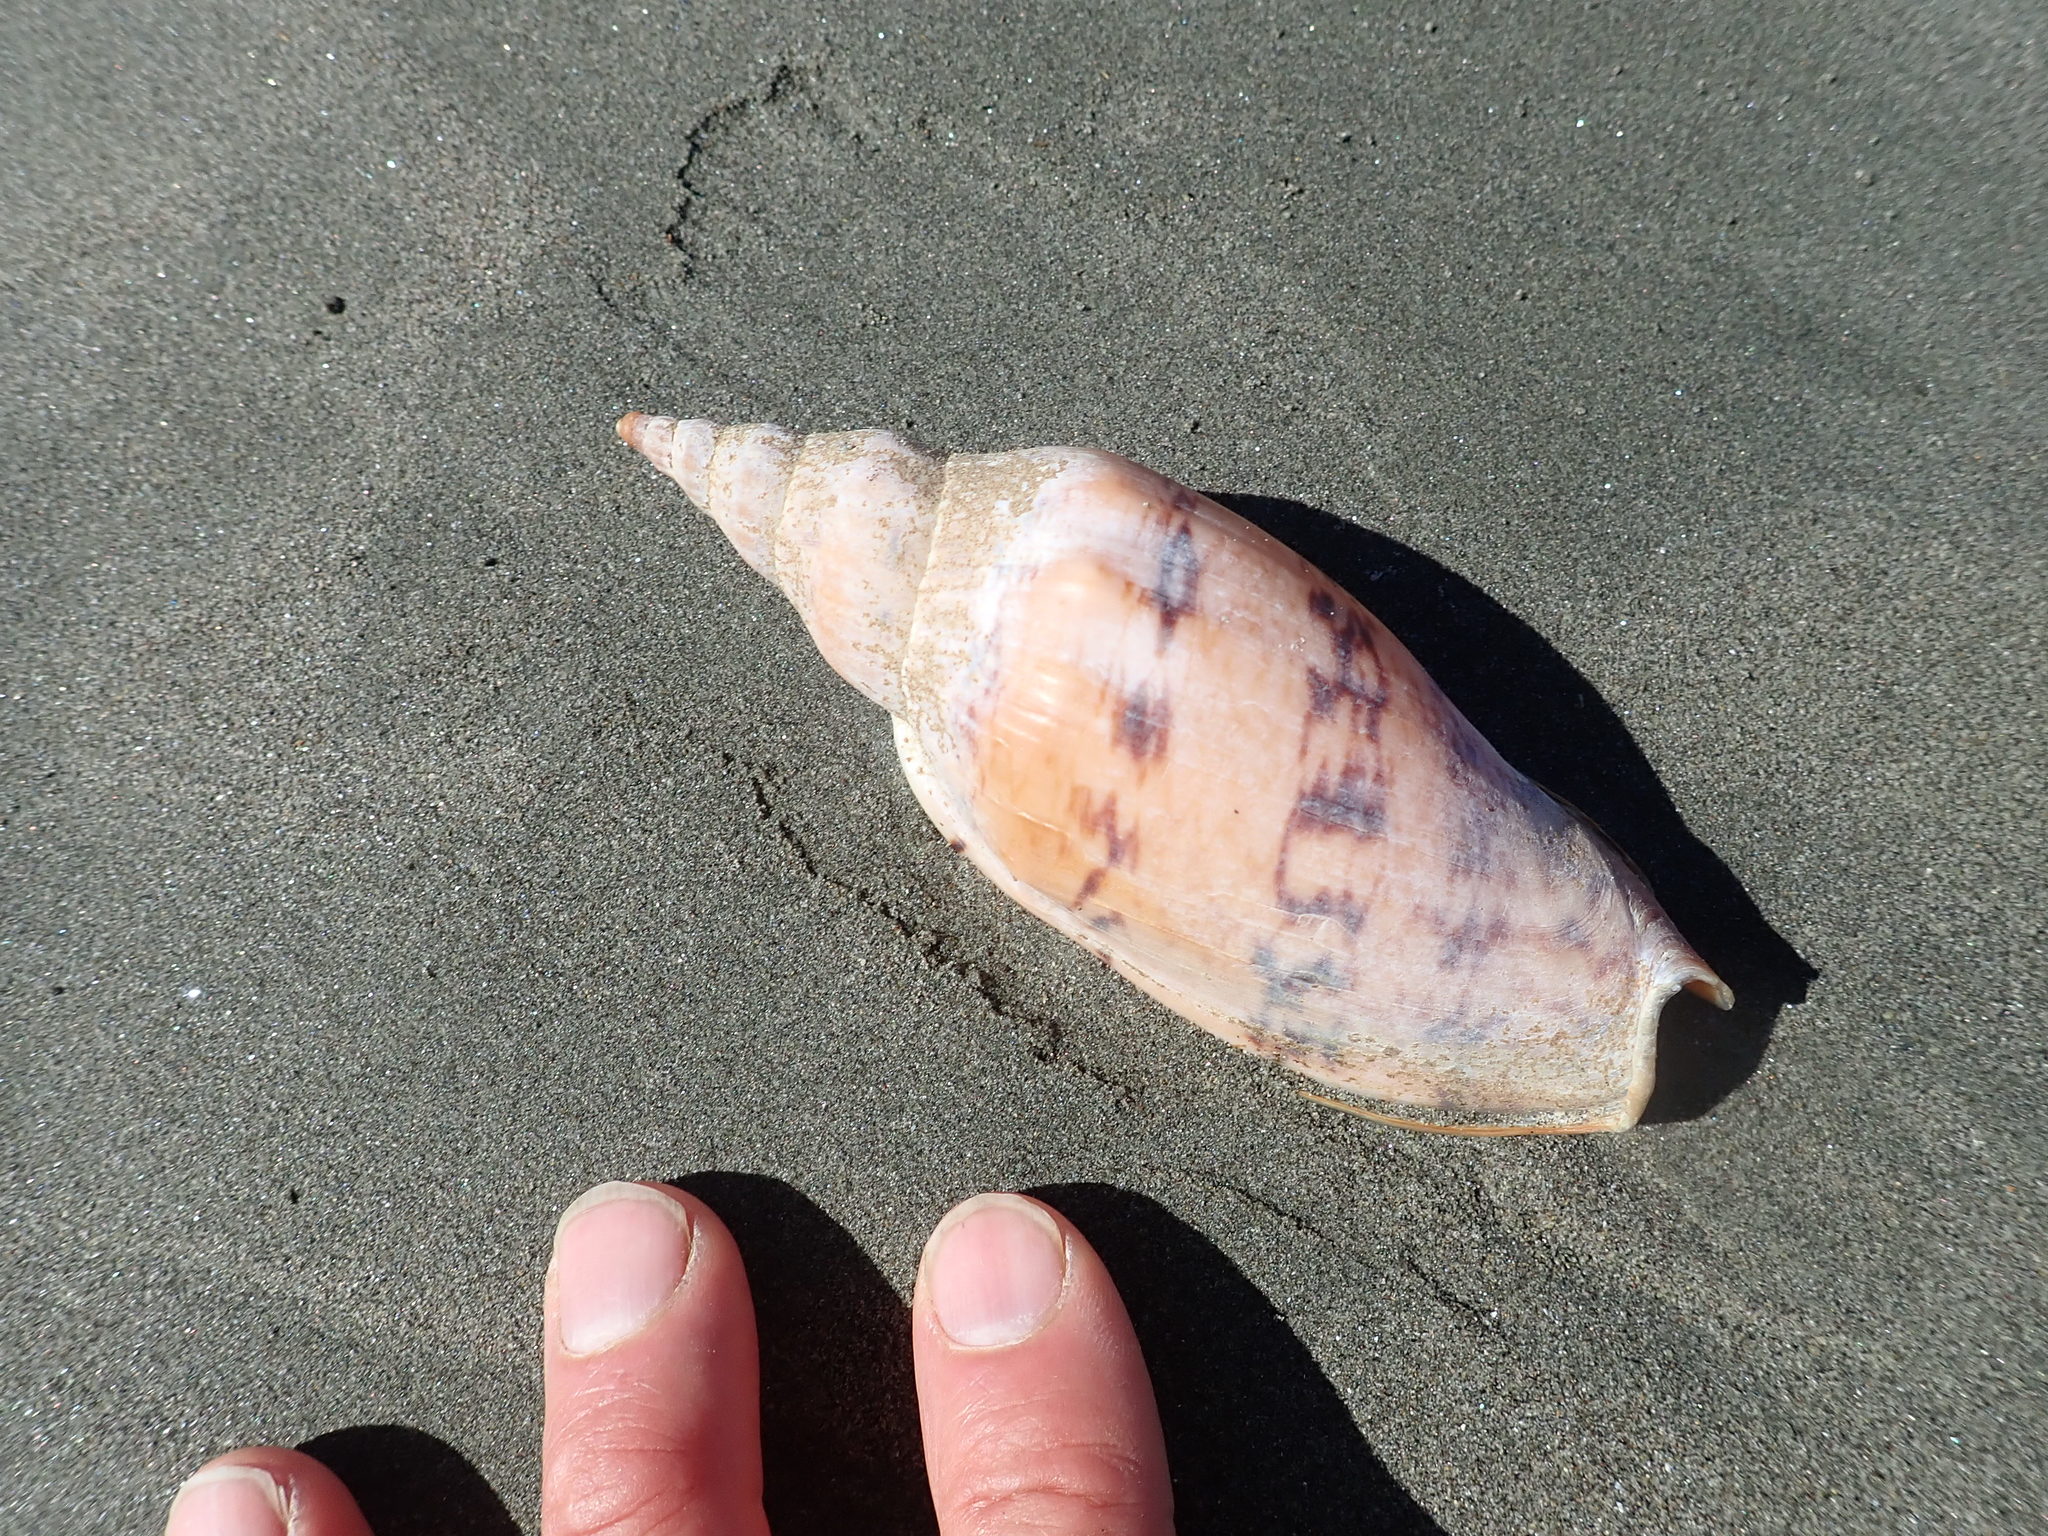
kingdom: Animalia
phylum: Mollusca
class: Gastropoda
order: Neogastropoda
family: Volutidae
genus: Alcithoe
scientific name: Alcithoe arabica
